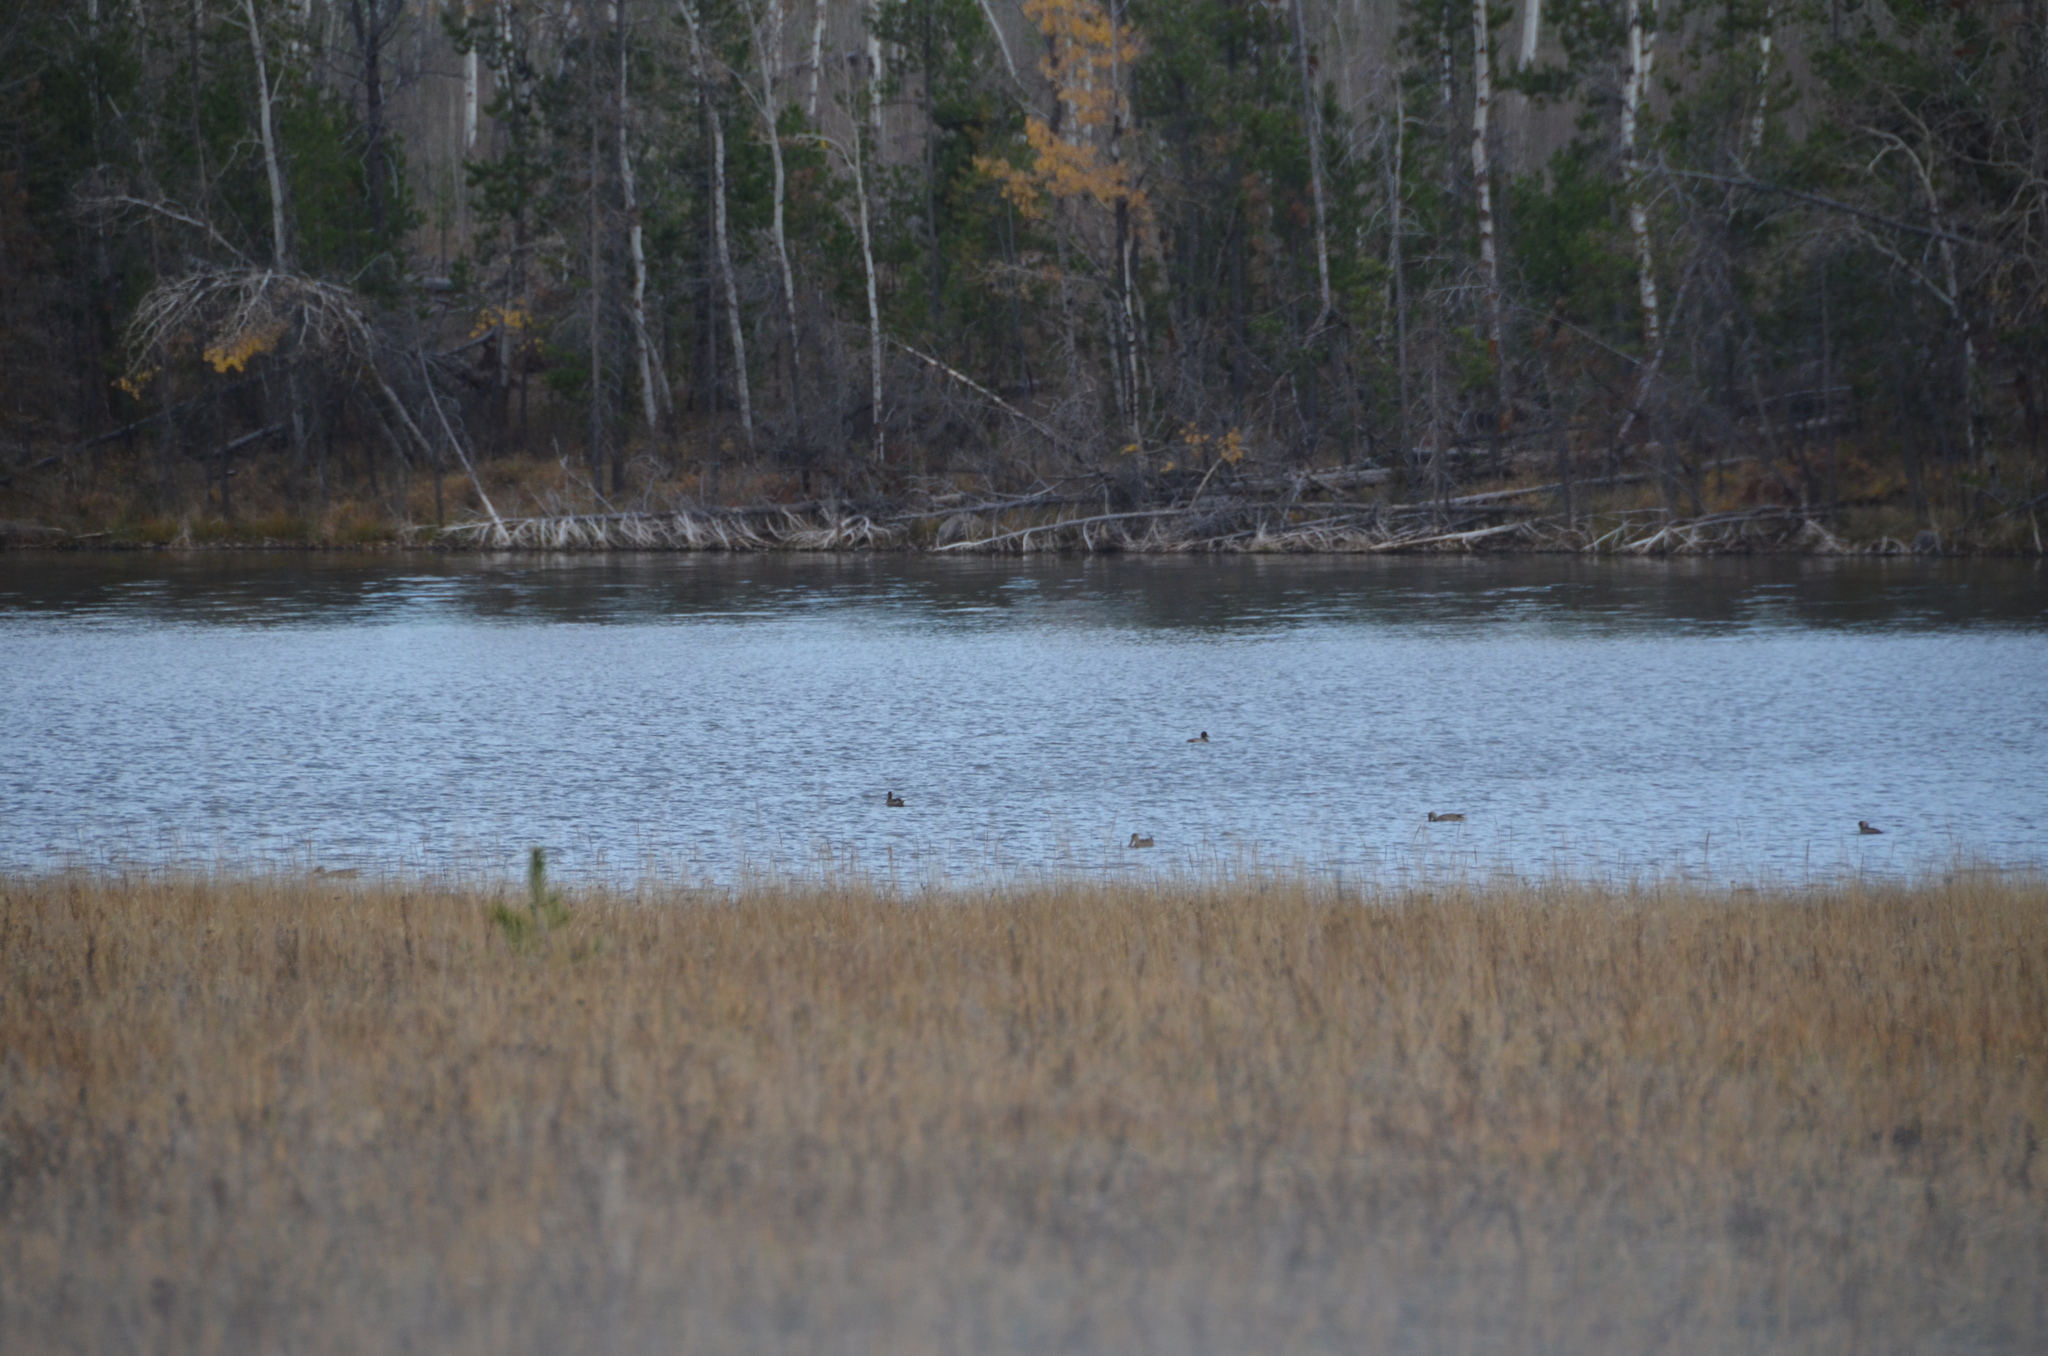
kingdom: Animalia
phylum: Chordata
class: Aves
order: Anseriformes
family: Anatidae
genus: Spatula
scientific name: Spatula clypeata
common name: Northern shoveler
